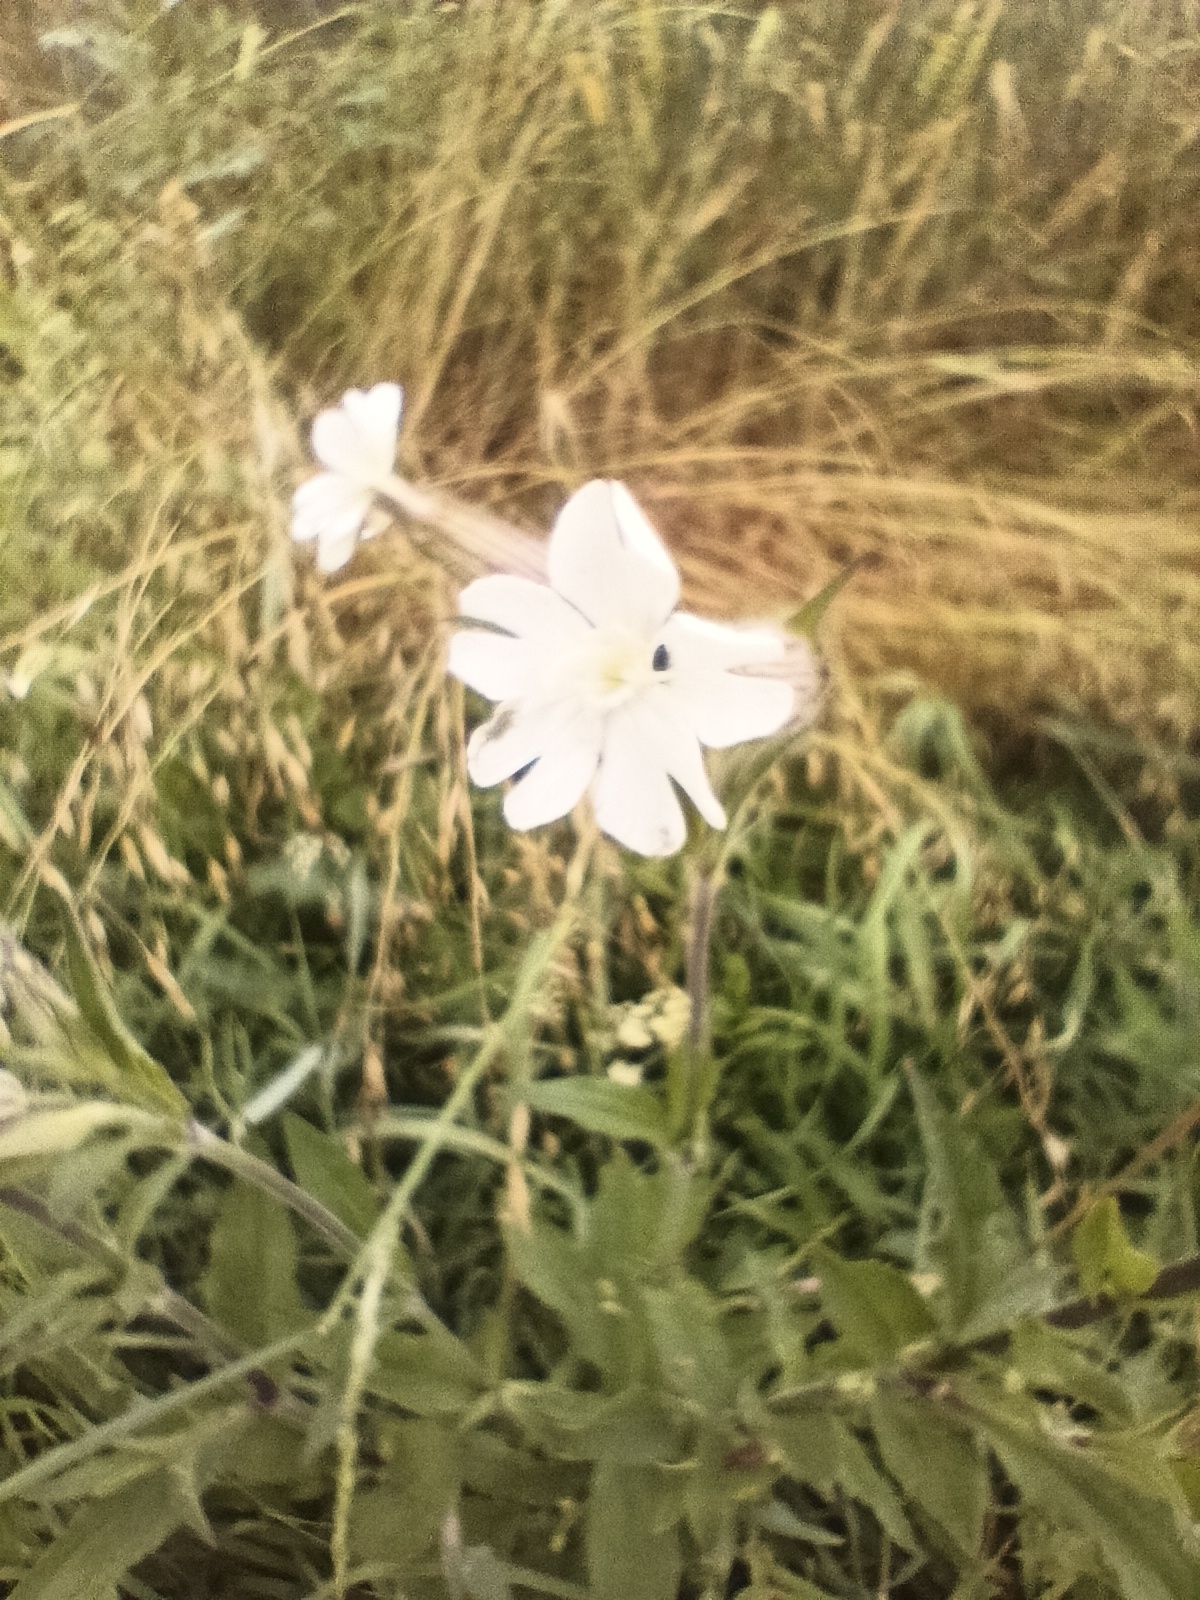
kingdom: Plantae
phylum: Tracheophyta
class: Magnoliopsida
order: Caryophyllales
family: Caryophyllaceae
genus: Silene
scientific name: Silene latifolia
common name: White campion
